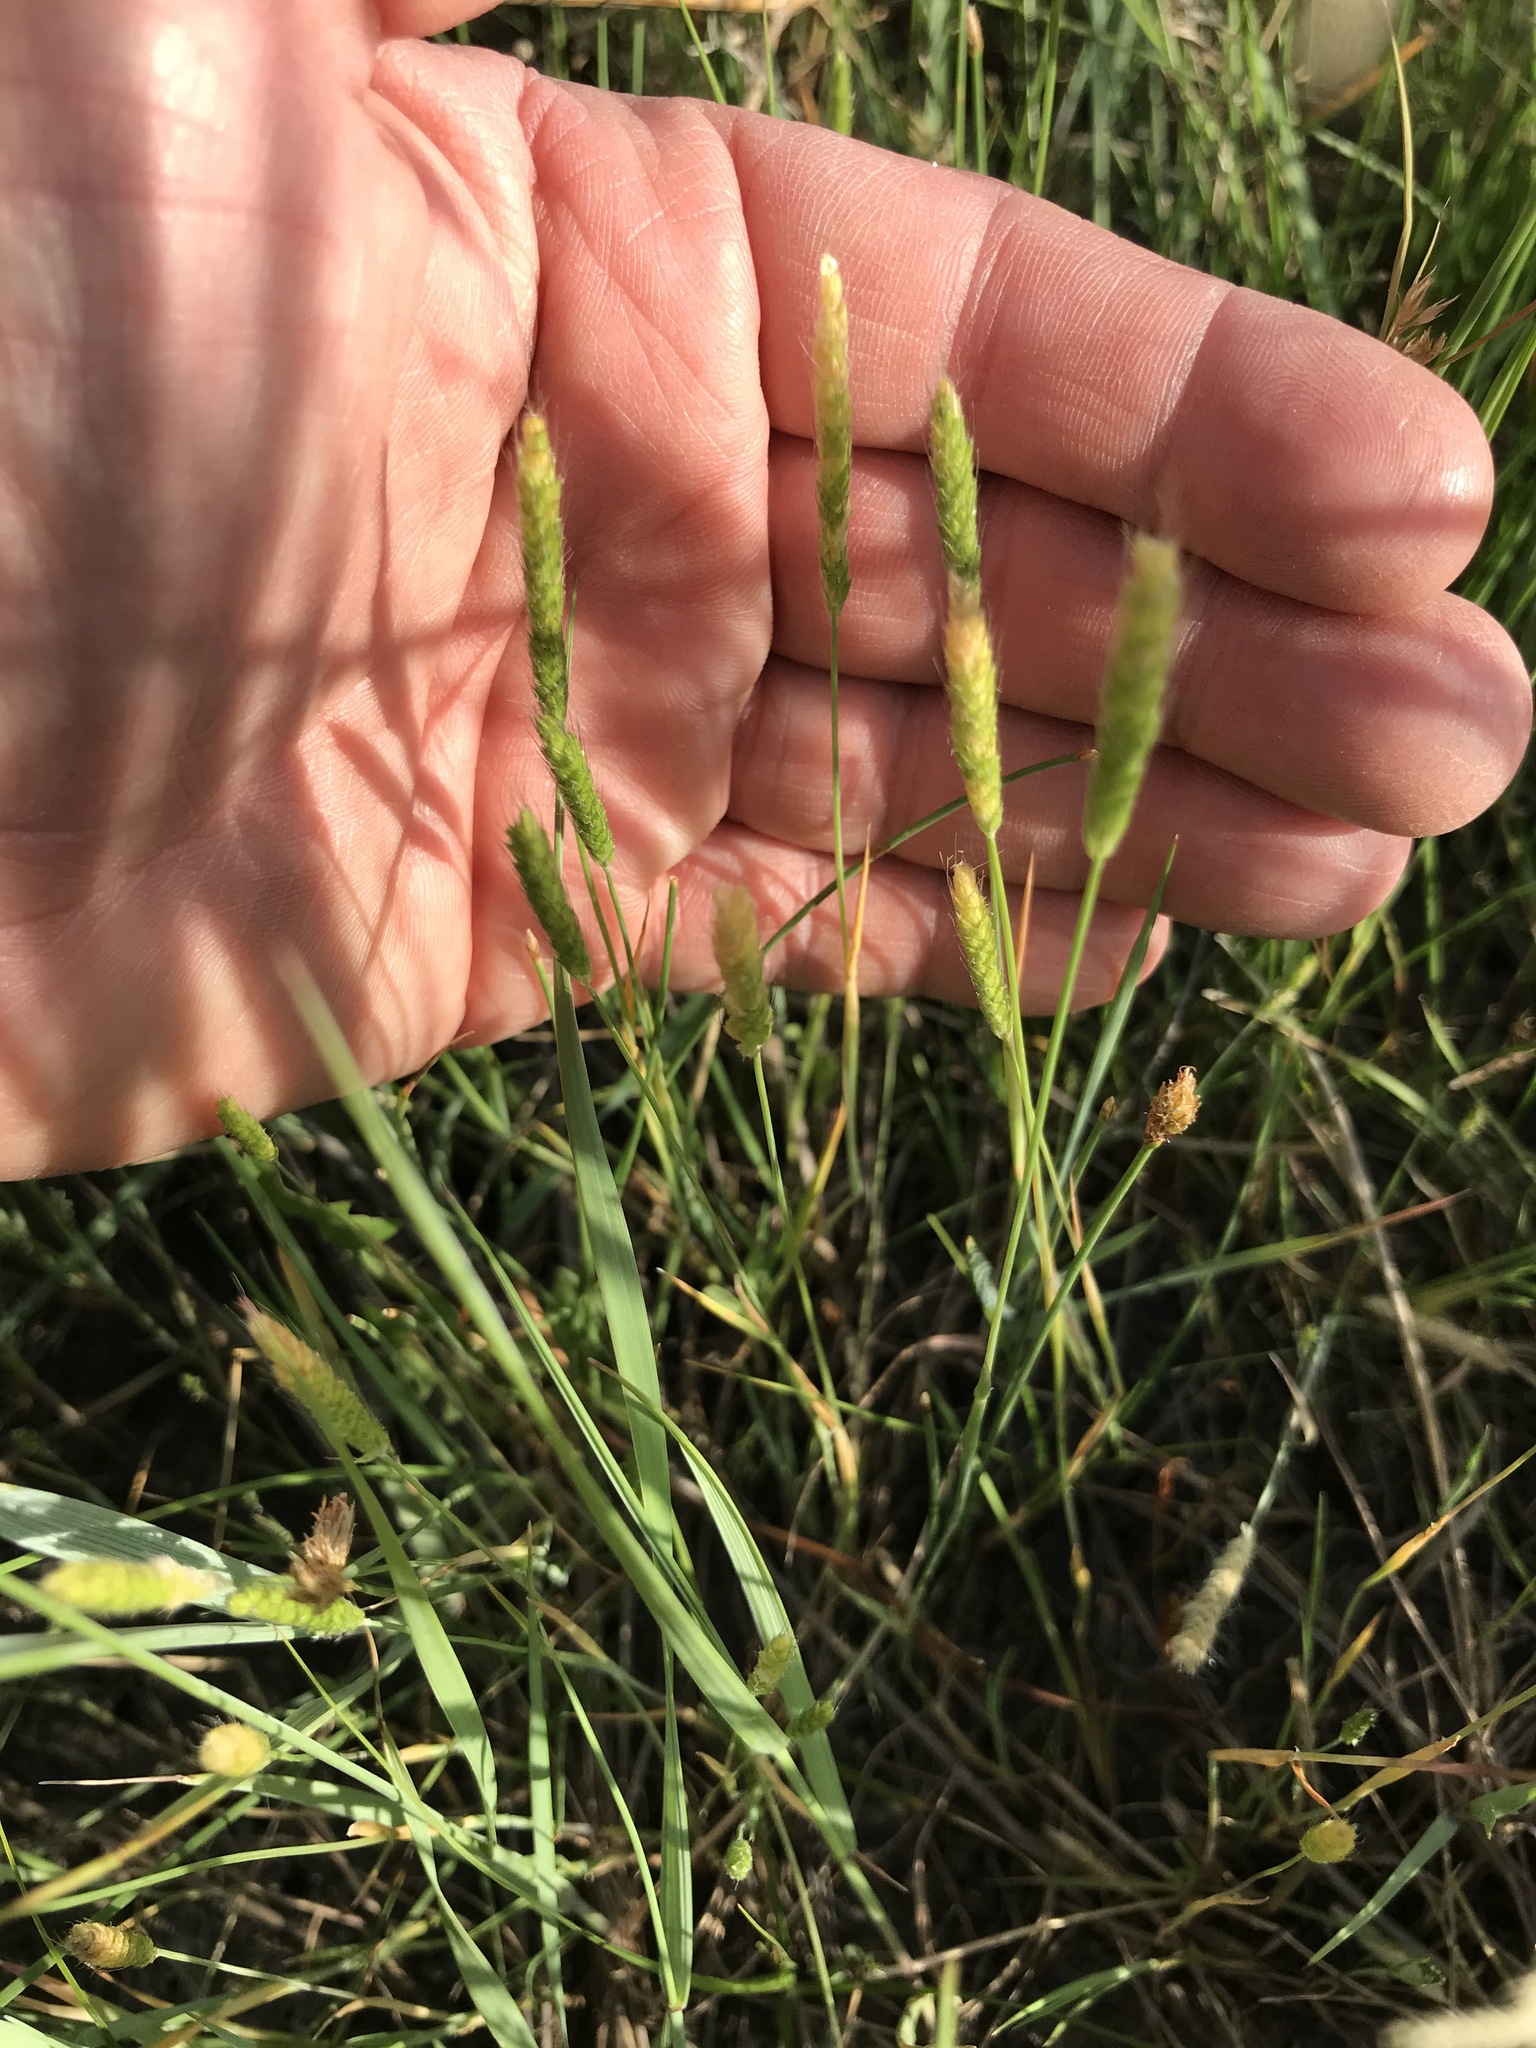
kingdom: Plantae
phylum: Tracheophyta
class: Liliopsida
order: Poales
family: Poaceae
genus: Alopecurus
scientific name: Alopecurus aequalis
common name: Orange foxtail
